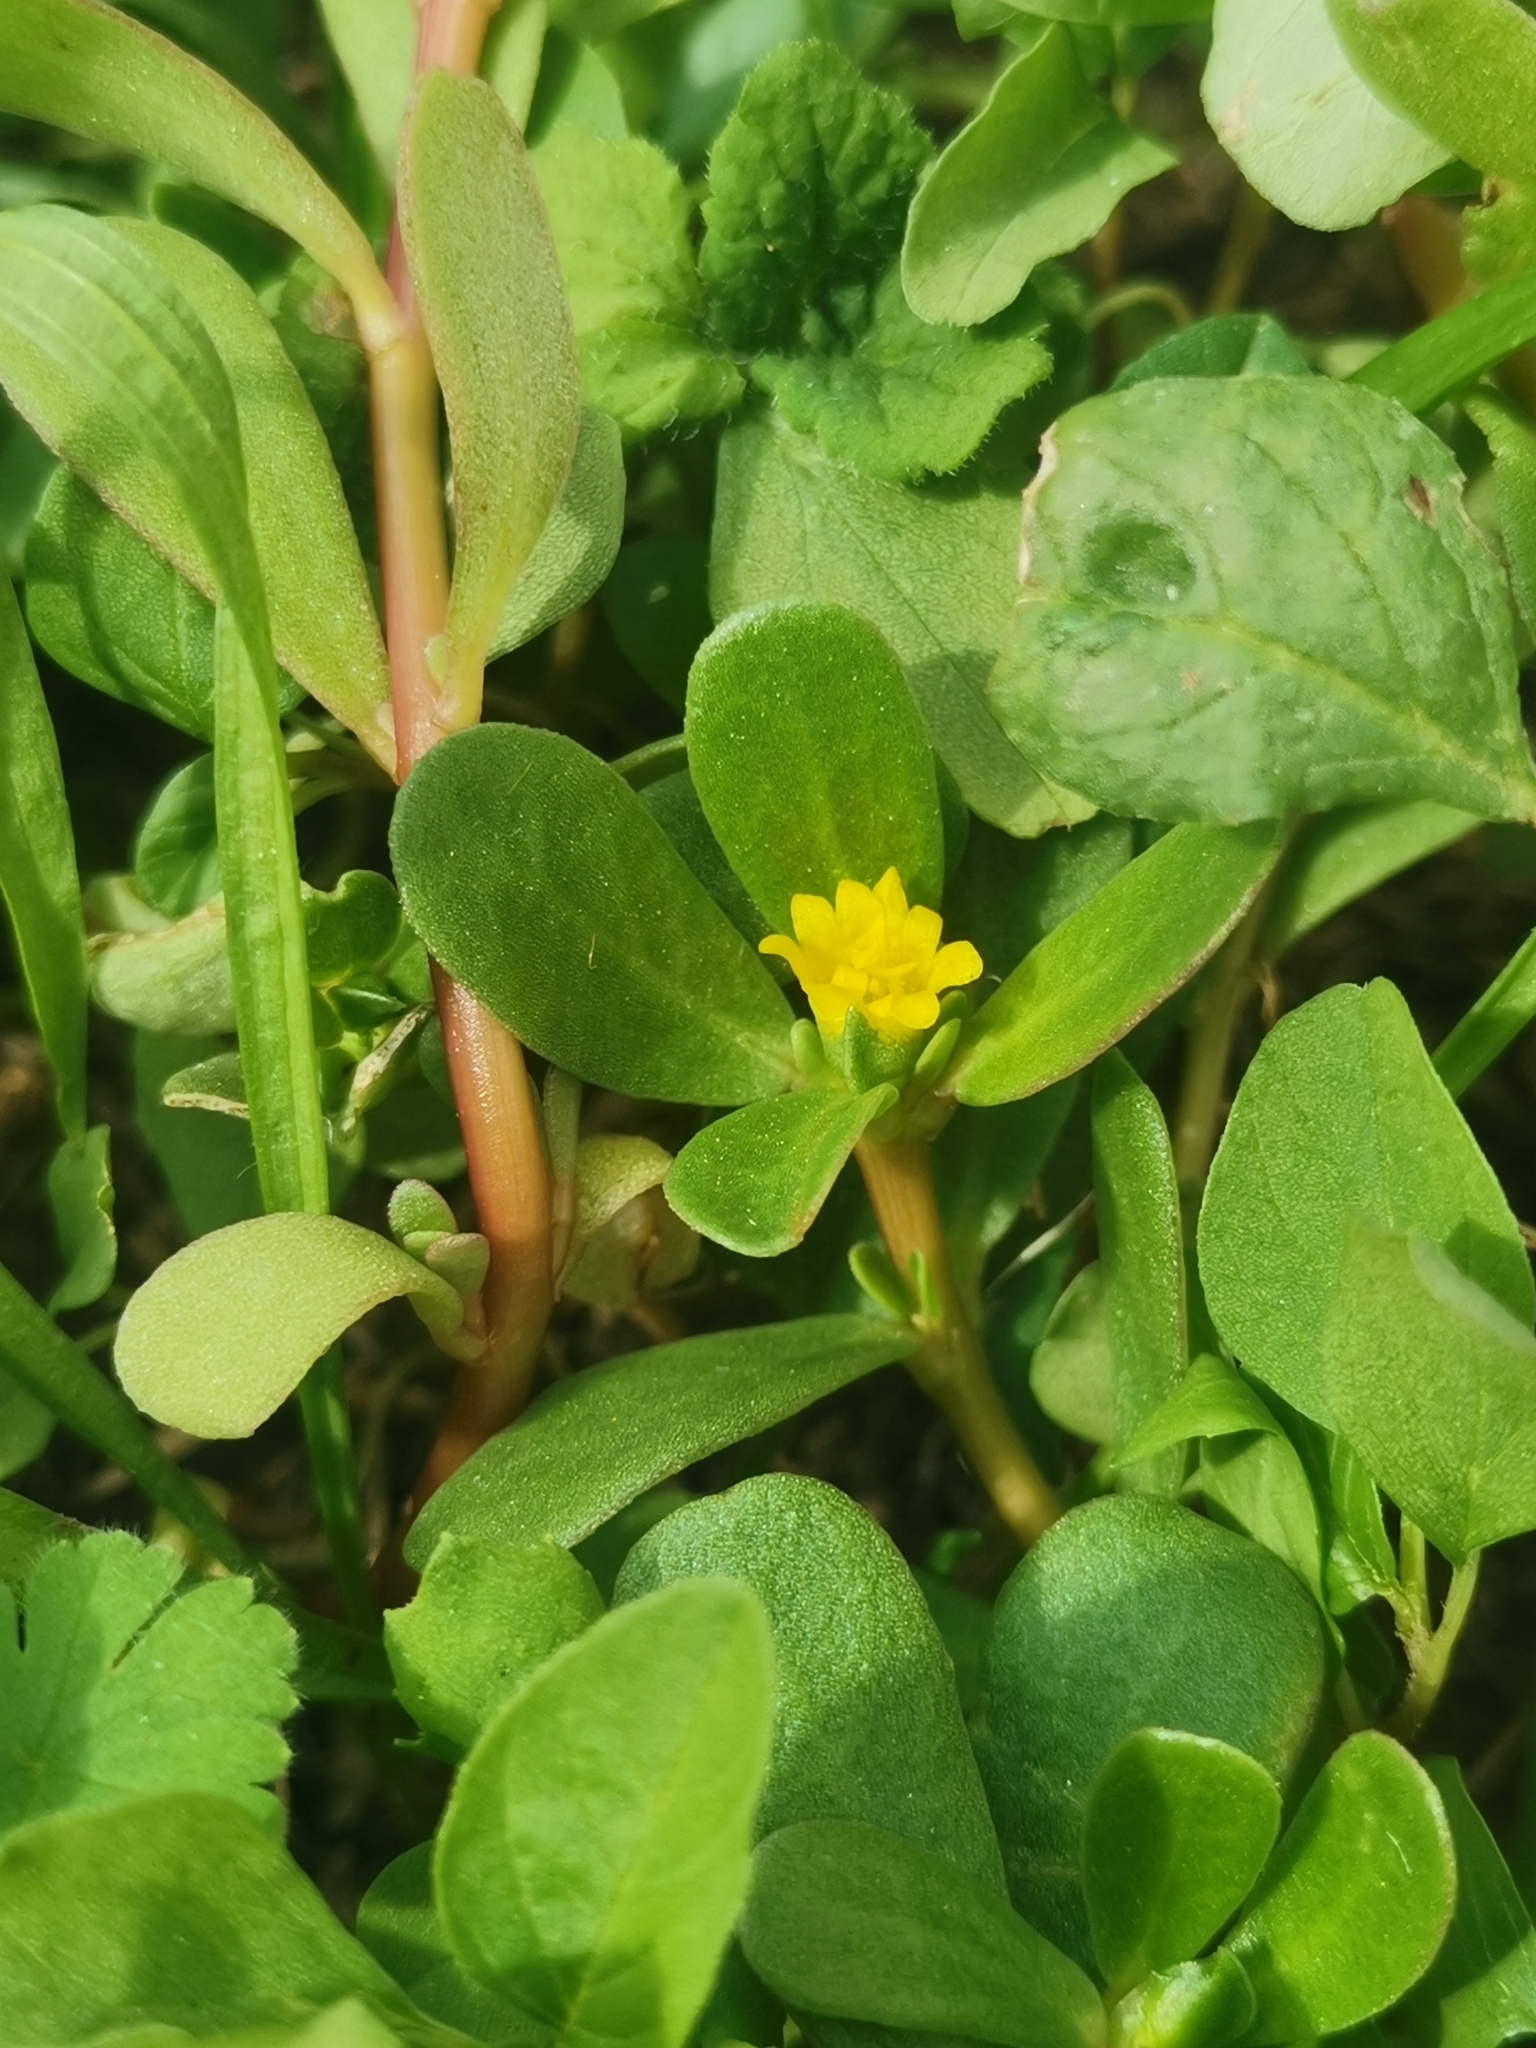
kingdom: Plantae
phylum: Tracheophyta
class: Magnoliopsida
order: Caryophyllales
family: Portulacaceae
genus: Portulaca
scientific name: Portulaca oleracea
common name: Common purslane
